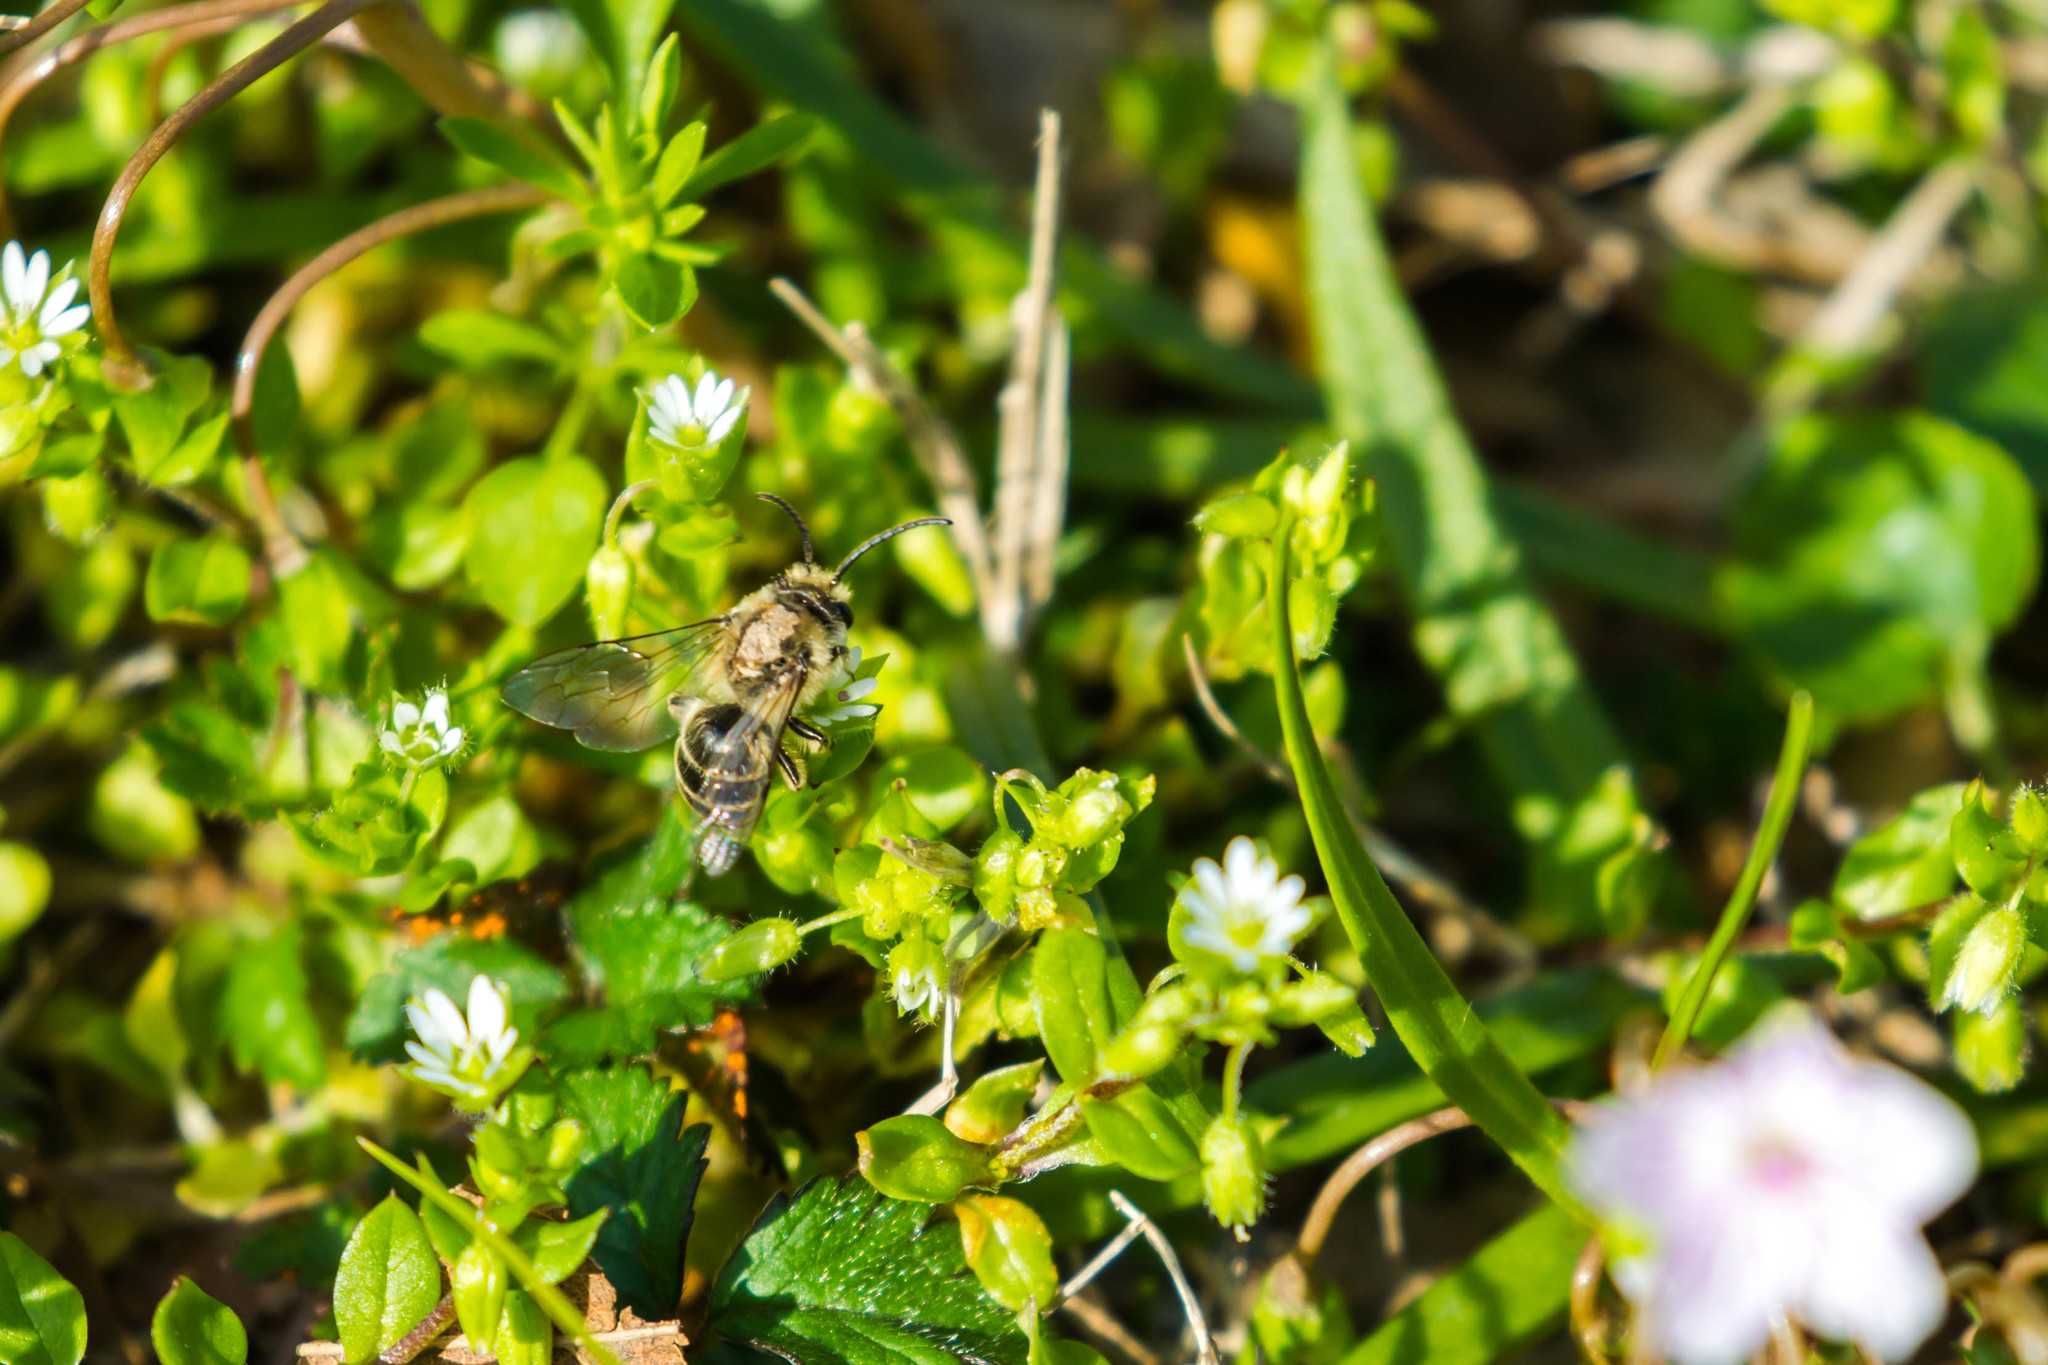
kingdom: Animalia
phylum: Arthropoda
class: Insecta
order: Hymenoptera
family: Colletidae
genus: Colletes
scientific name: Colletes inaequalis
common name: Unequal cellophane bee
